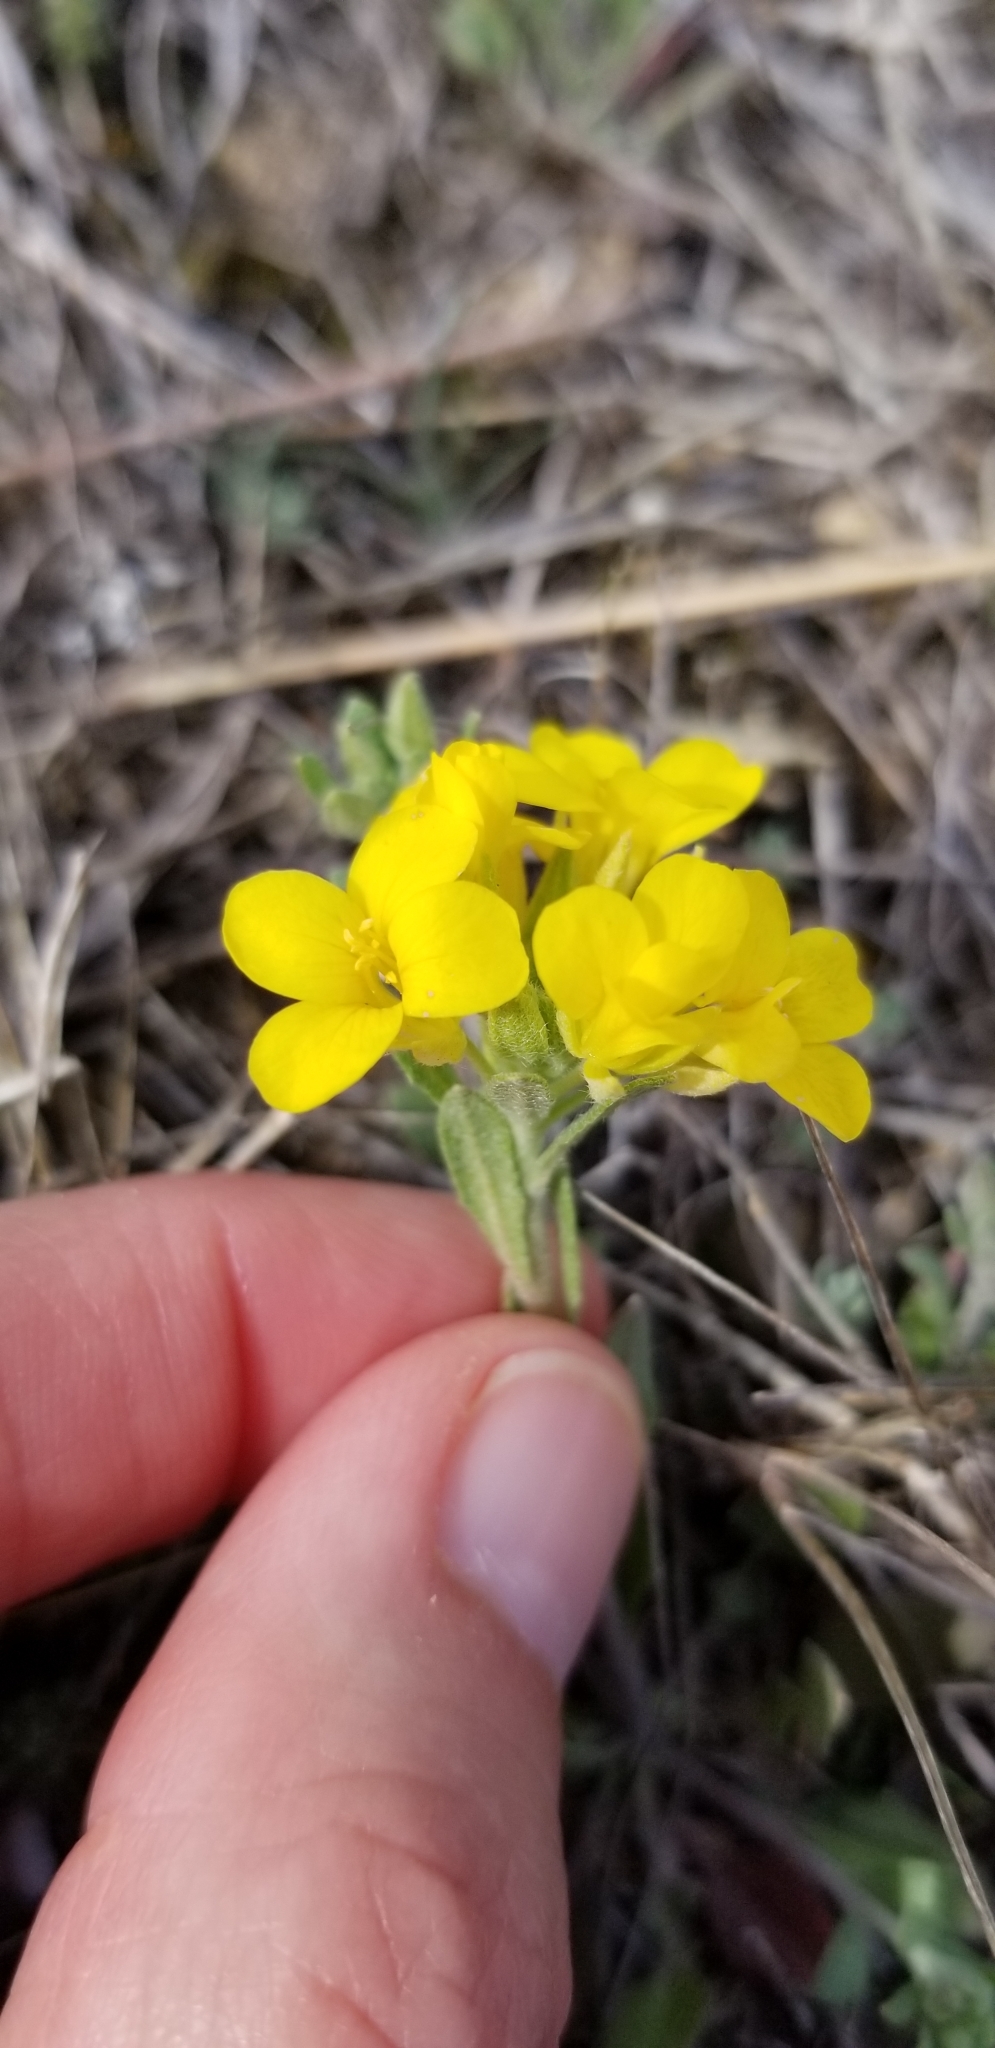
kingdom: Plantae
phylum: Tracheophyta
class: Magnoliopsida
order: Brassicales
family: Brassicaceae
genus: Physaria
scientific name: Physaria gracilis
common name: Spreading bladderpod
